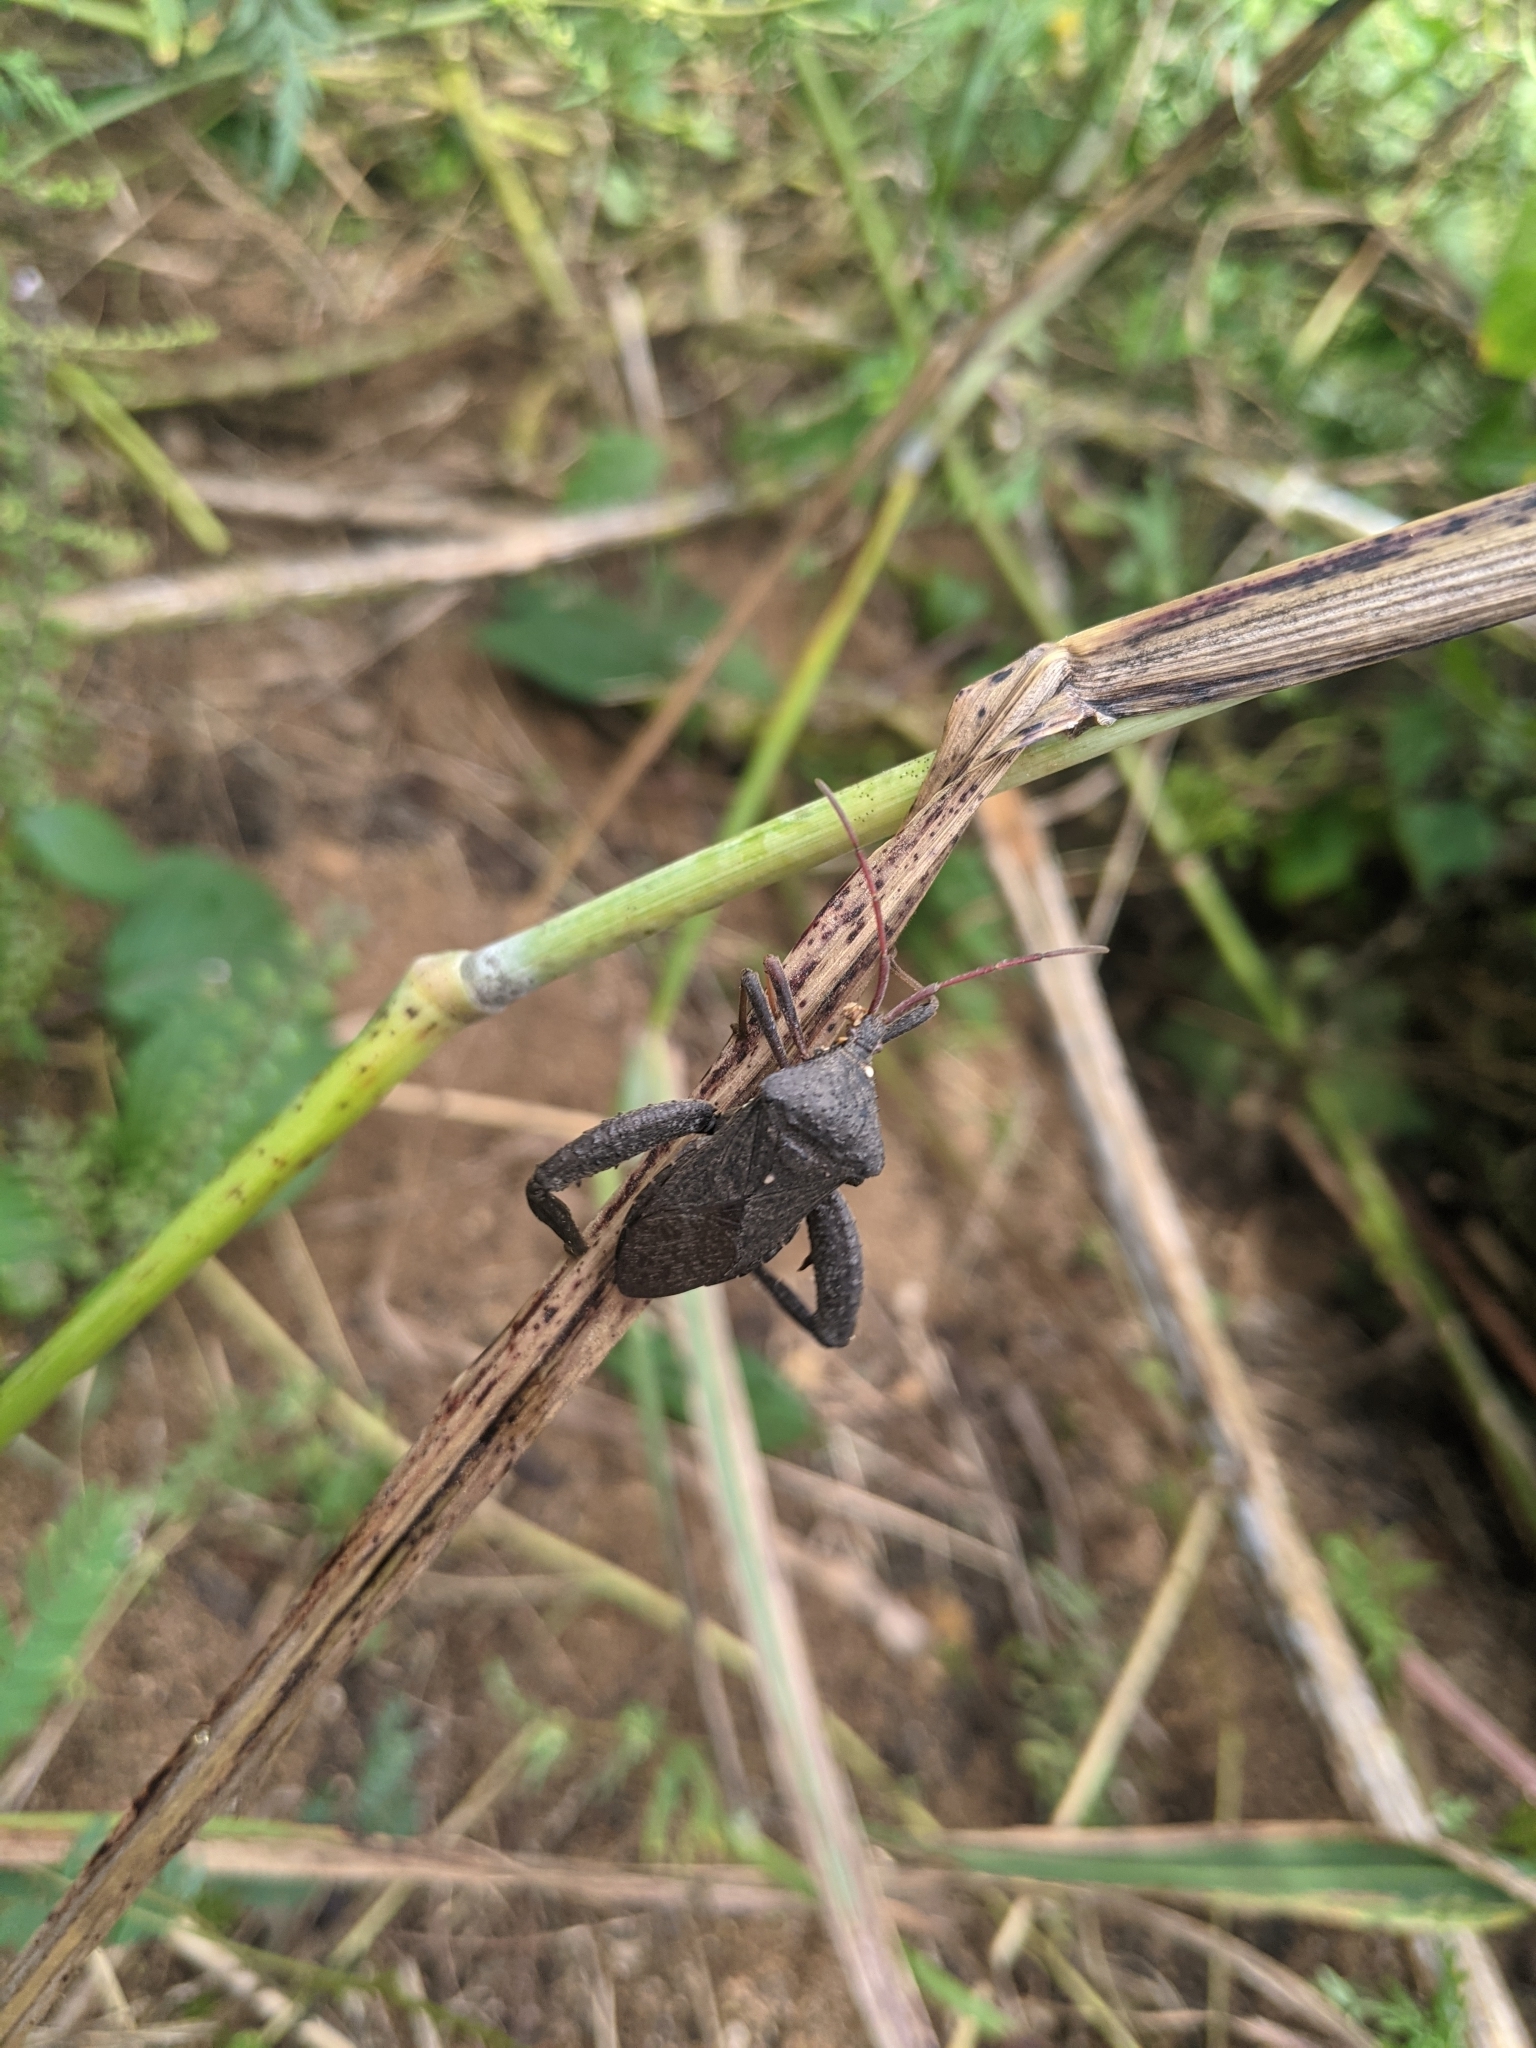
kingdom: Animalia
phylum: Arthropoda
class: Insecta
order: Hemiptera
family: Coreidae
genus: Acanthocephala
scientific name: Acanthocephala femorata
